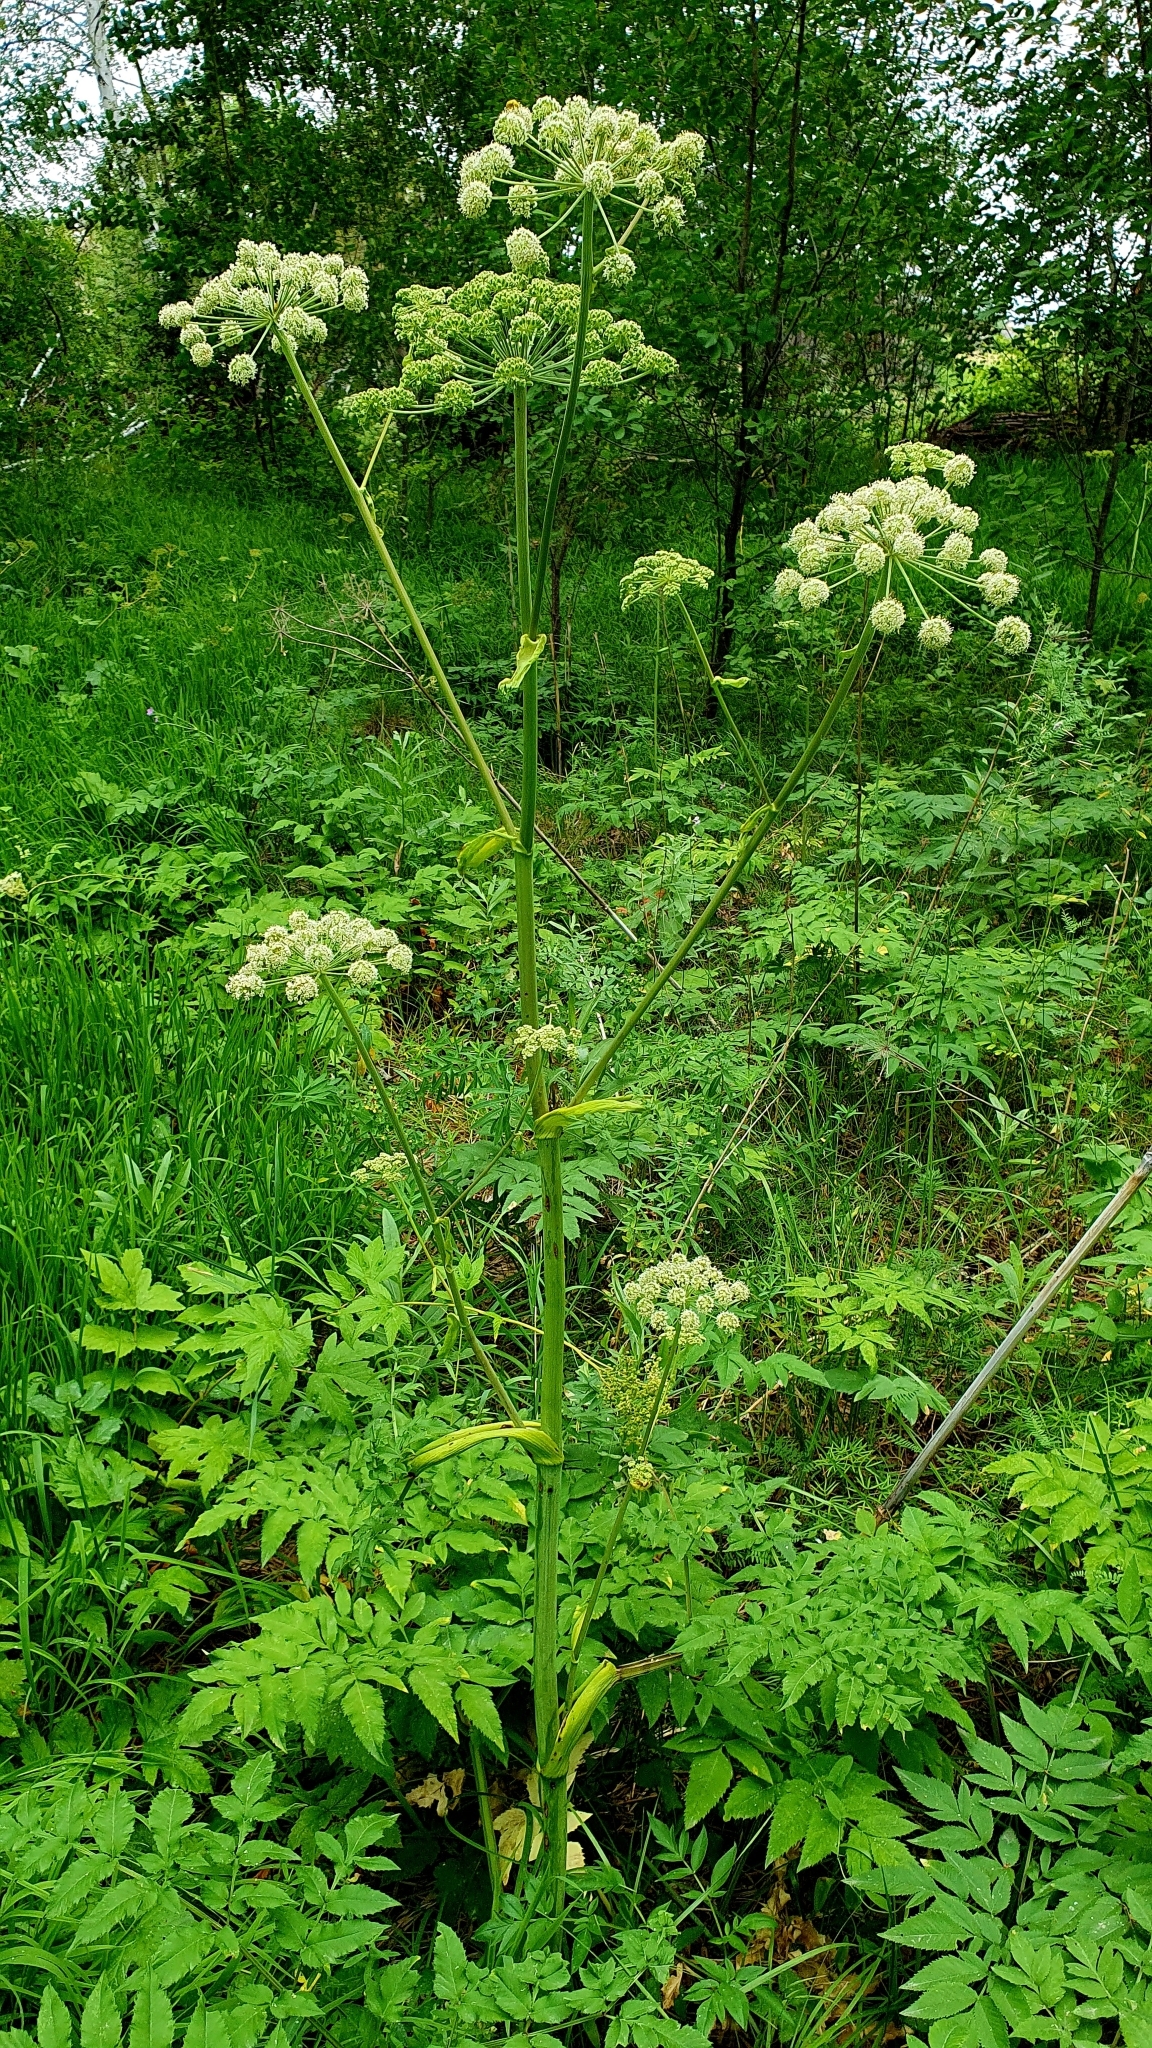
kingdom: Plantae
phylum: Tracheophyta
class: Magnoliopsida
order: Apiales
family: Apiaceae
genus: Angelica
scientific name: Angelica sylvestris
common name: Wild angelica
